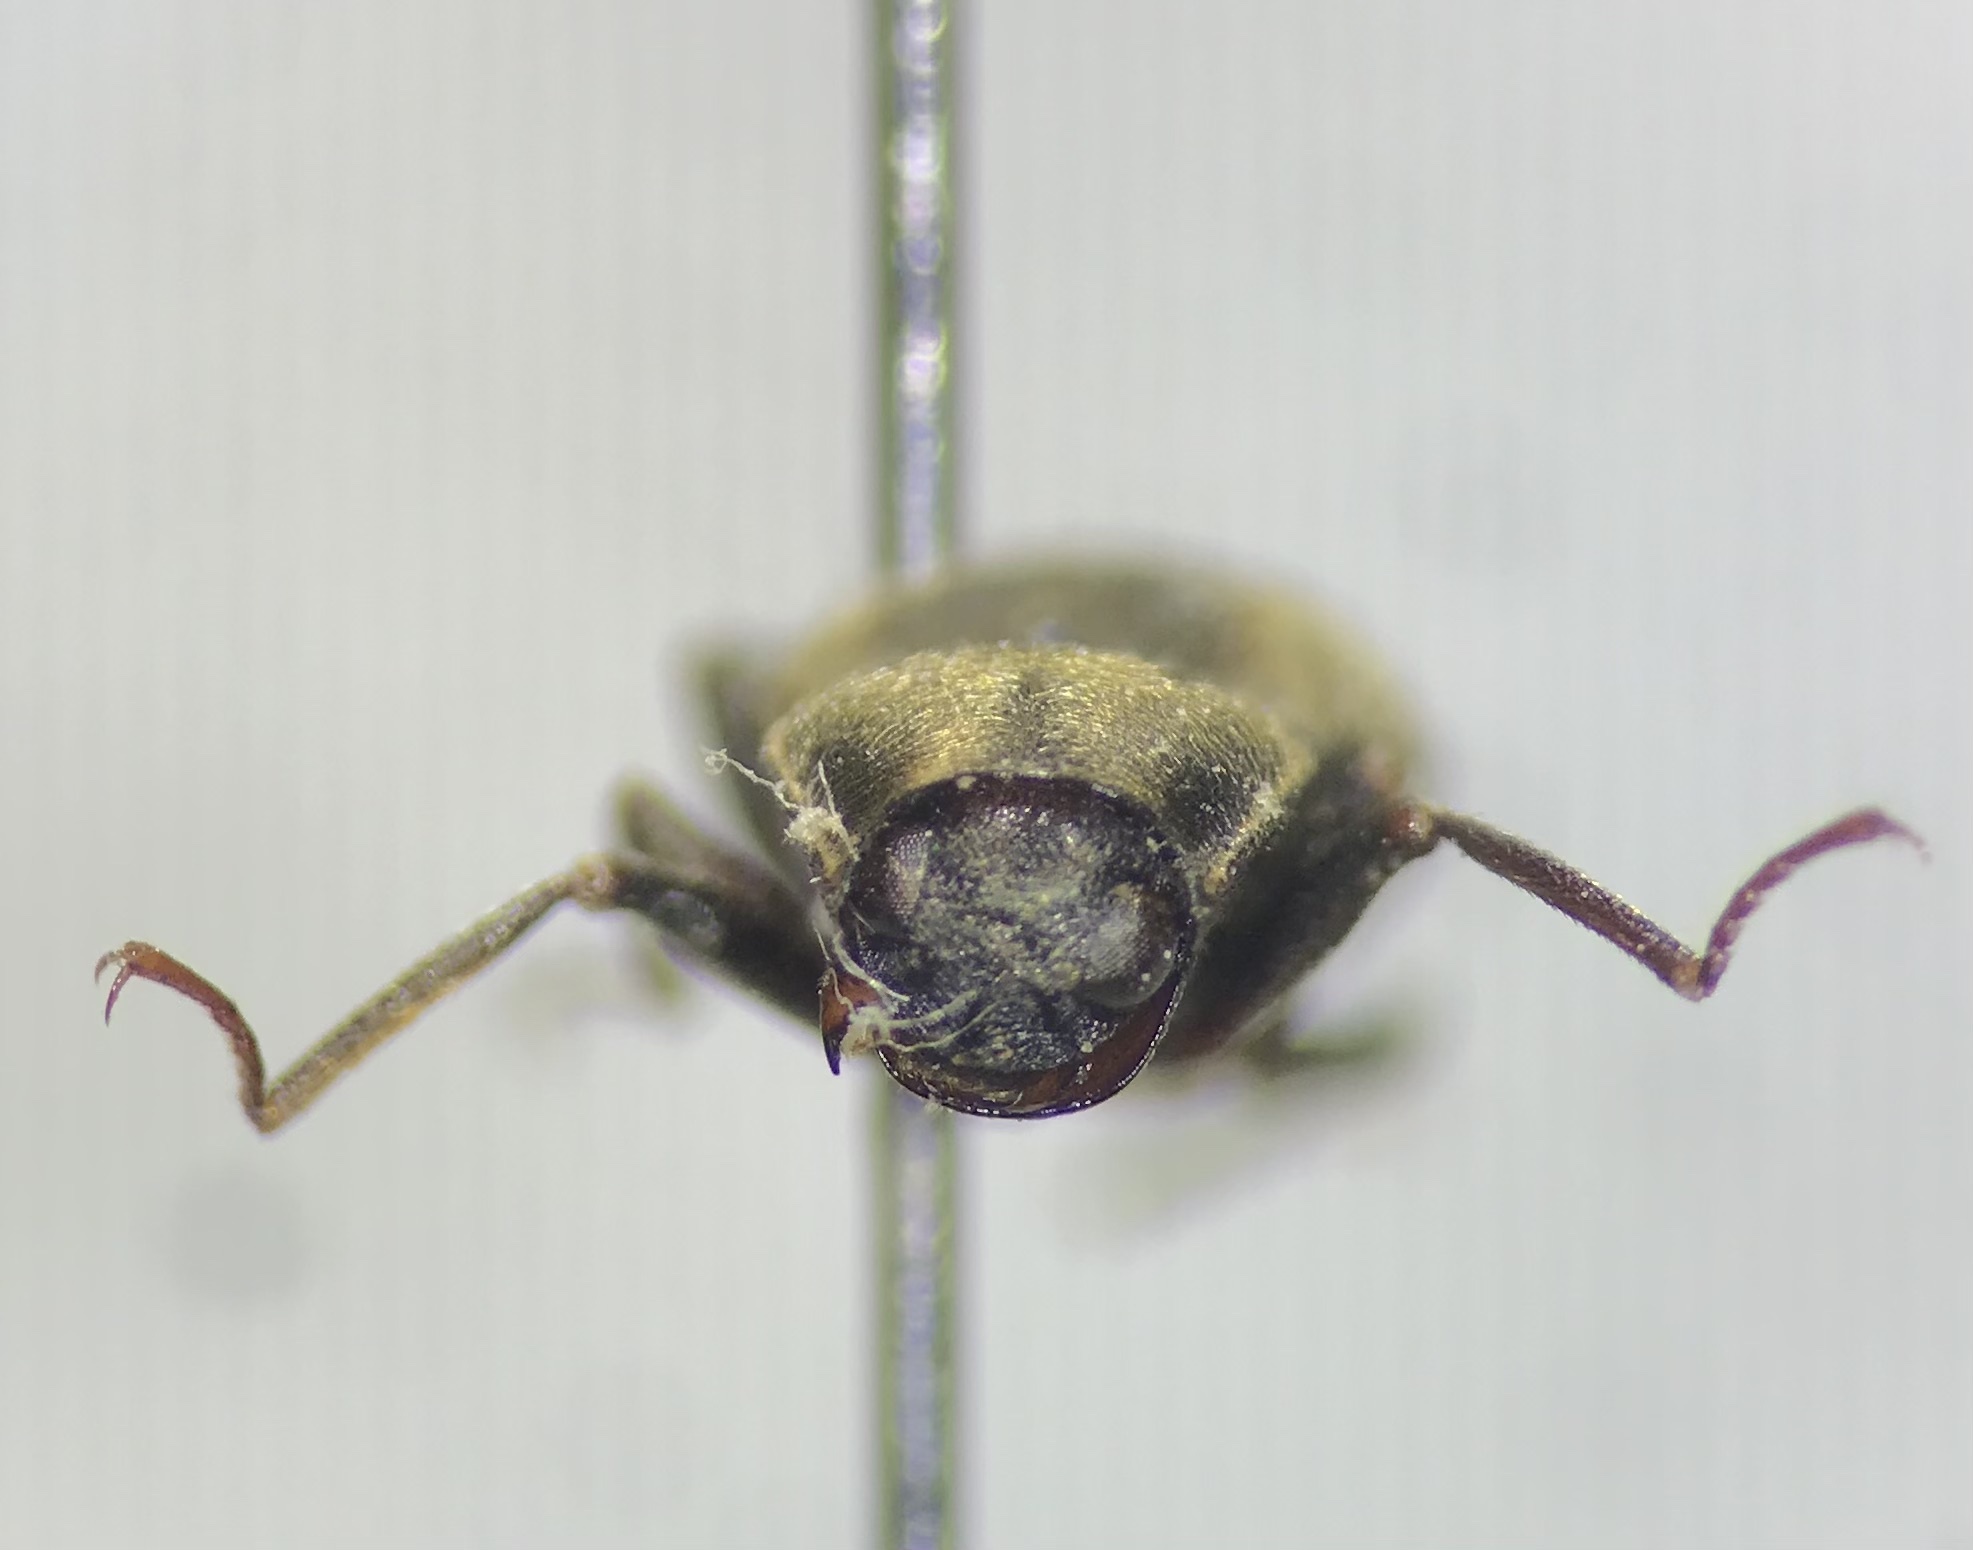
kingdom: Animalia
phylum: Arthropoda
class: Insecta
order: Coleoptera
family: Dryopidae
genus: Helichus
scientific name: Helichus lithophilus
